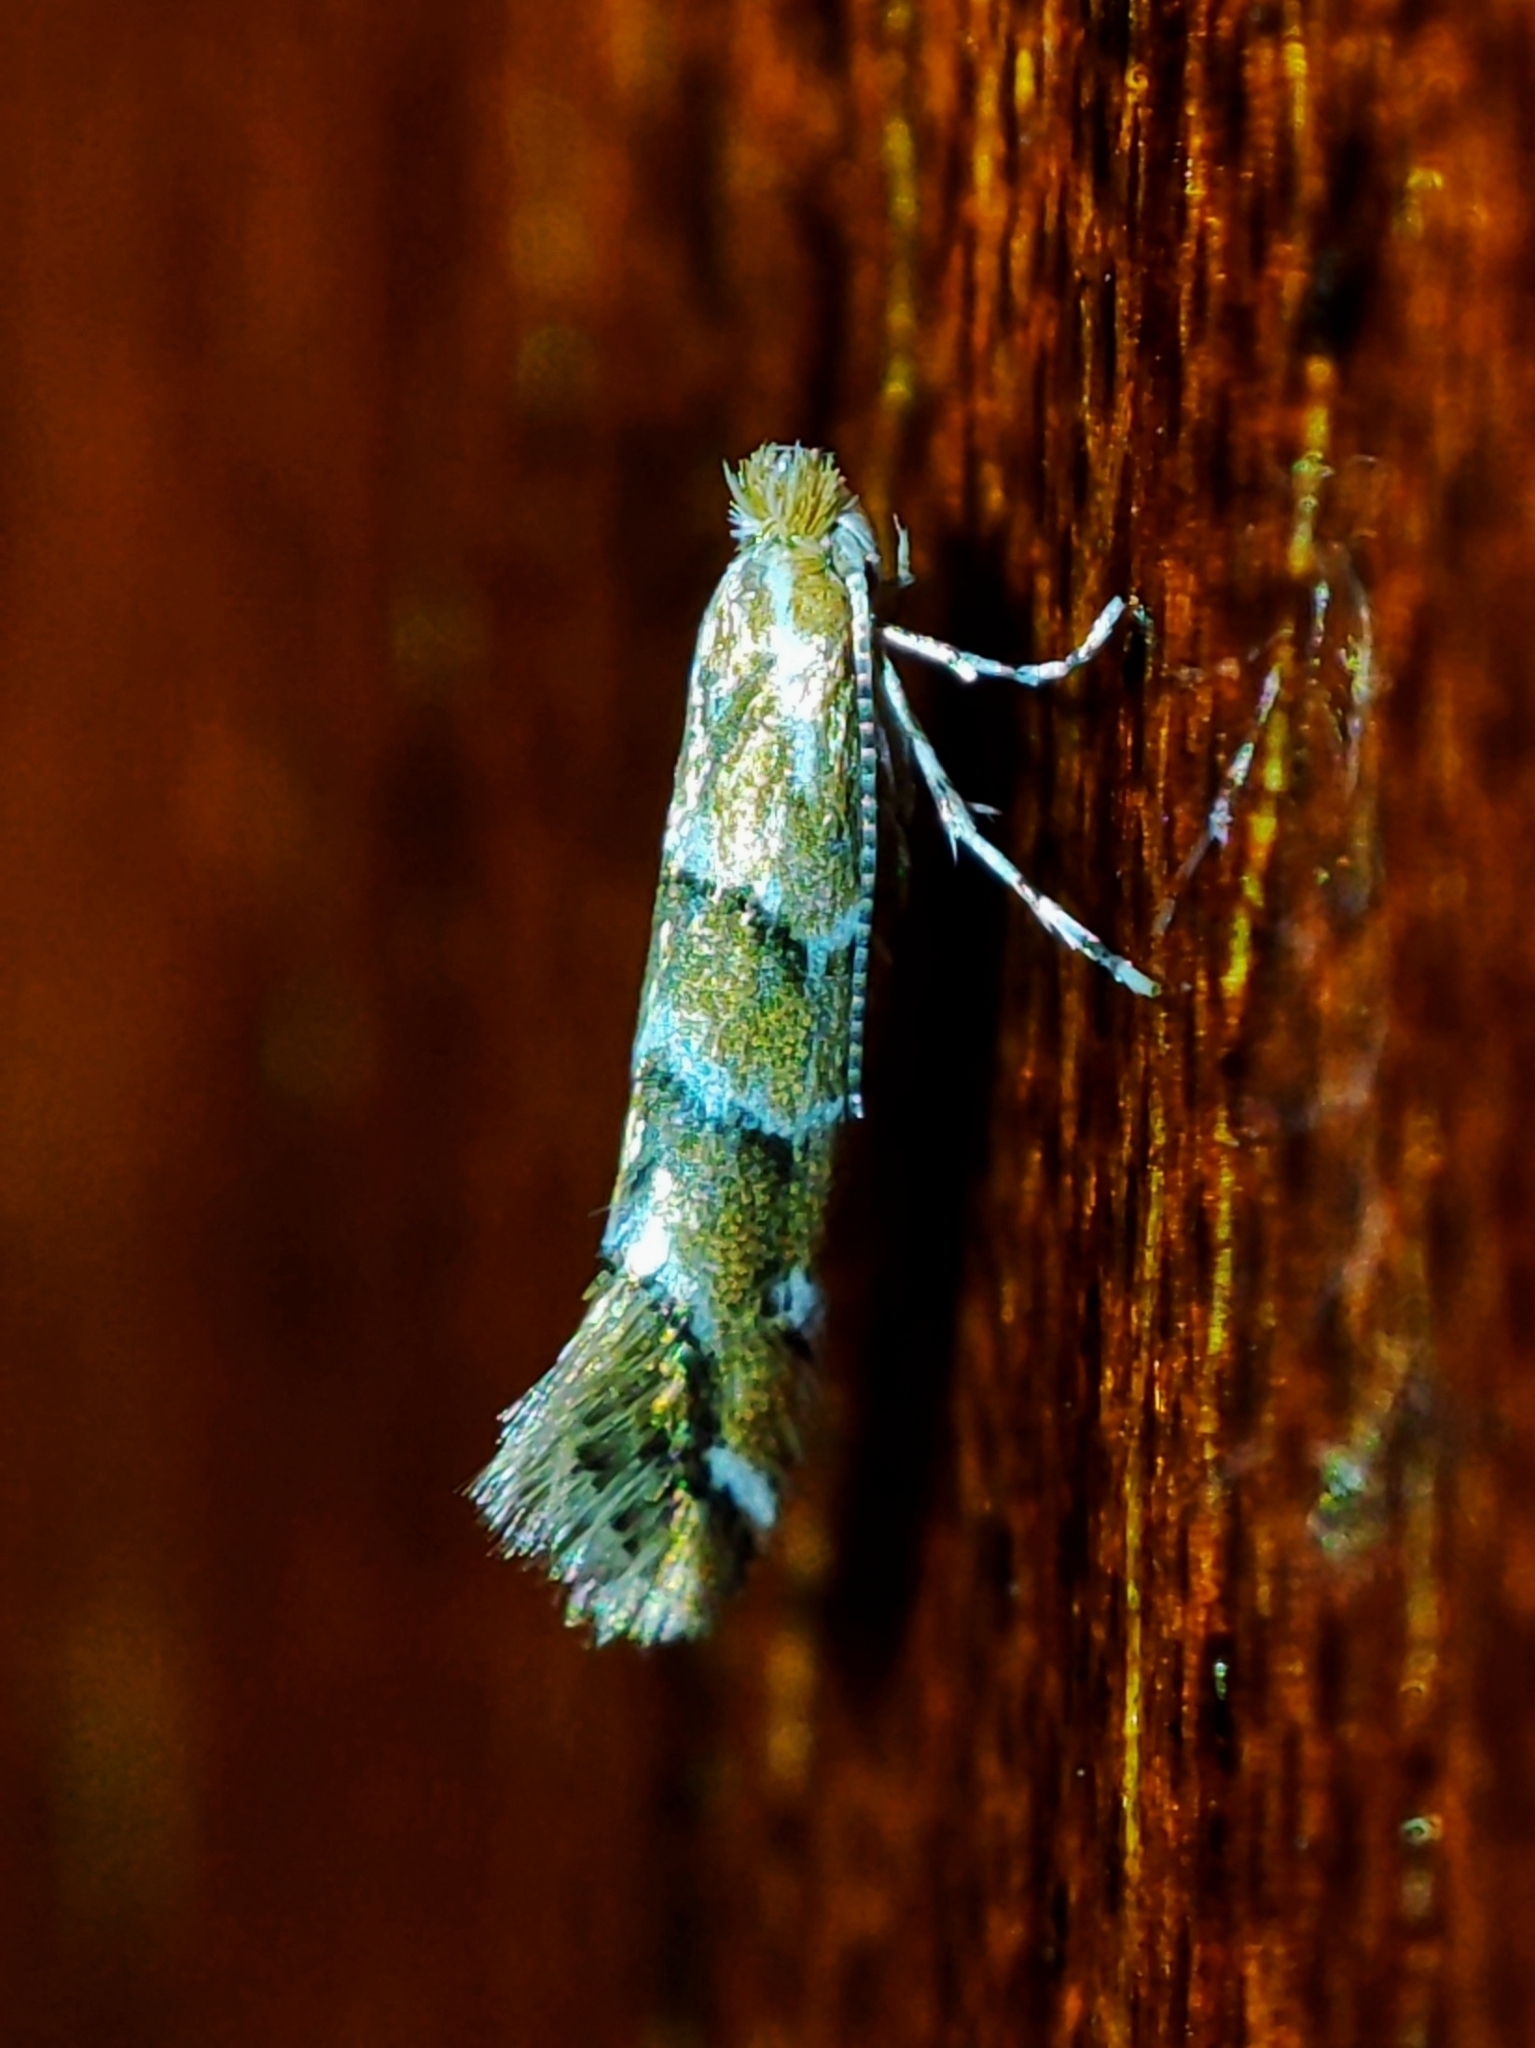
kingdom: Animalia
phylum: Arthropoda
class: Insecta
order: Lepidoptera
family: Gracillariidae
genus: Cameraria
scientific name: Cameraria ohridella
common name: Horse-chestnut leaf-miner
